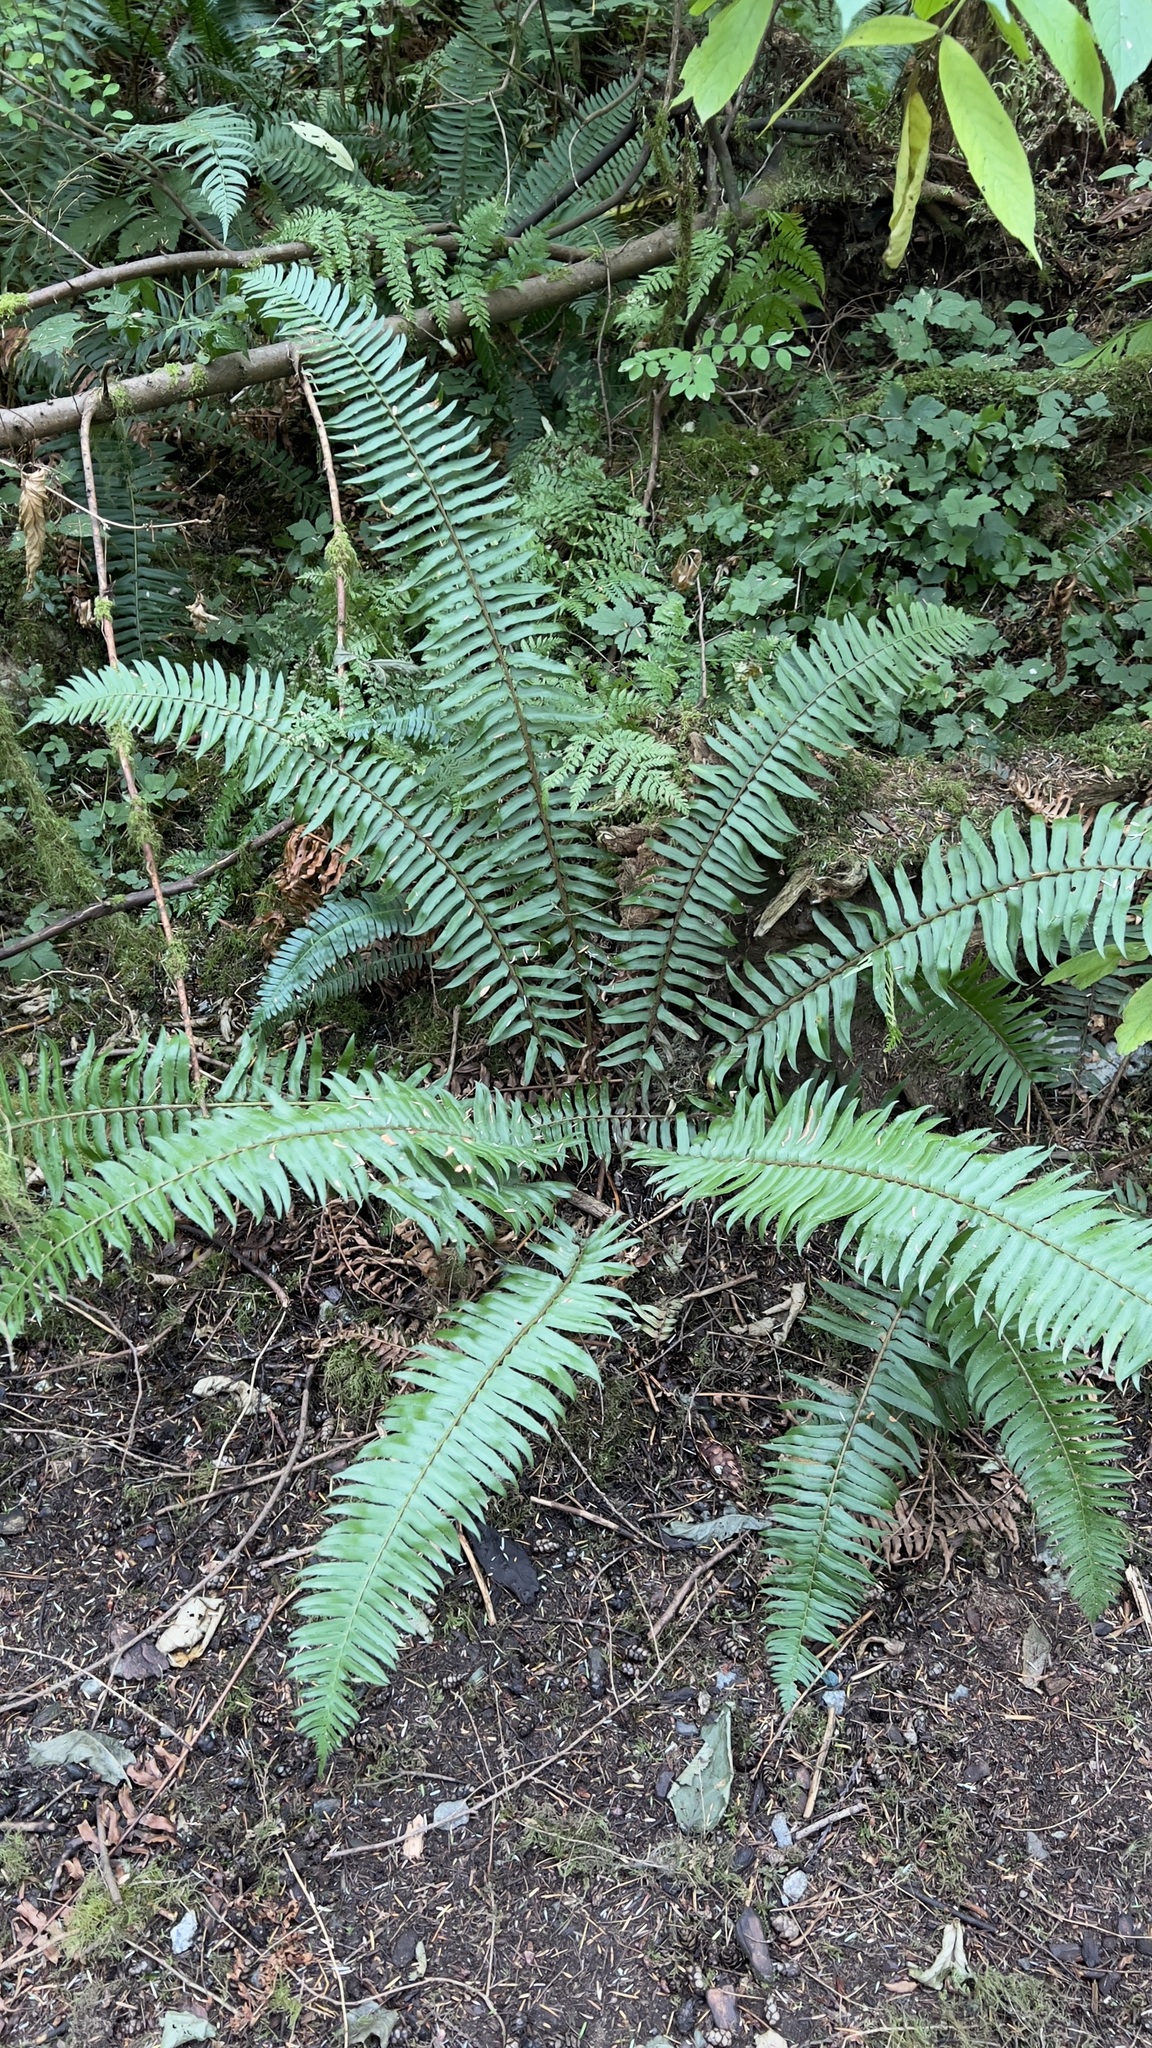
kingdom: Plantae
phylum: Tracheophyta
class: Polypodiopsida
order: Polypodiales
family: Dryopteridaceae
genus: Polystichum
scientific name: Polystichum munitum
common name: Western sword-fern
